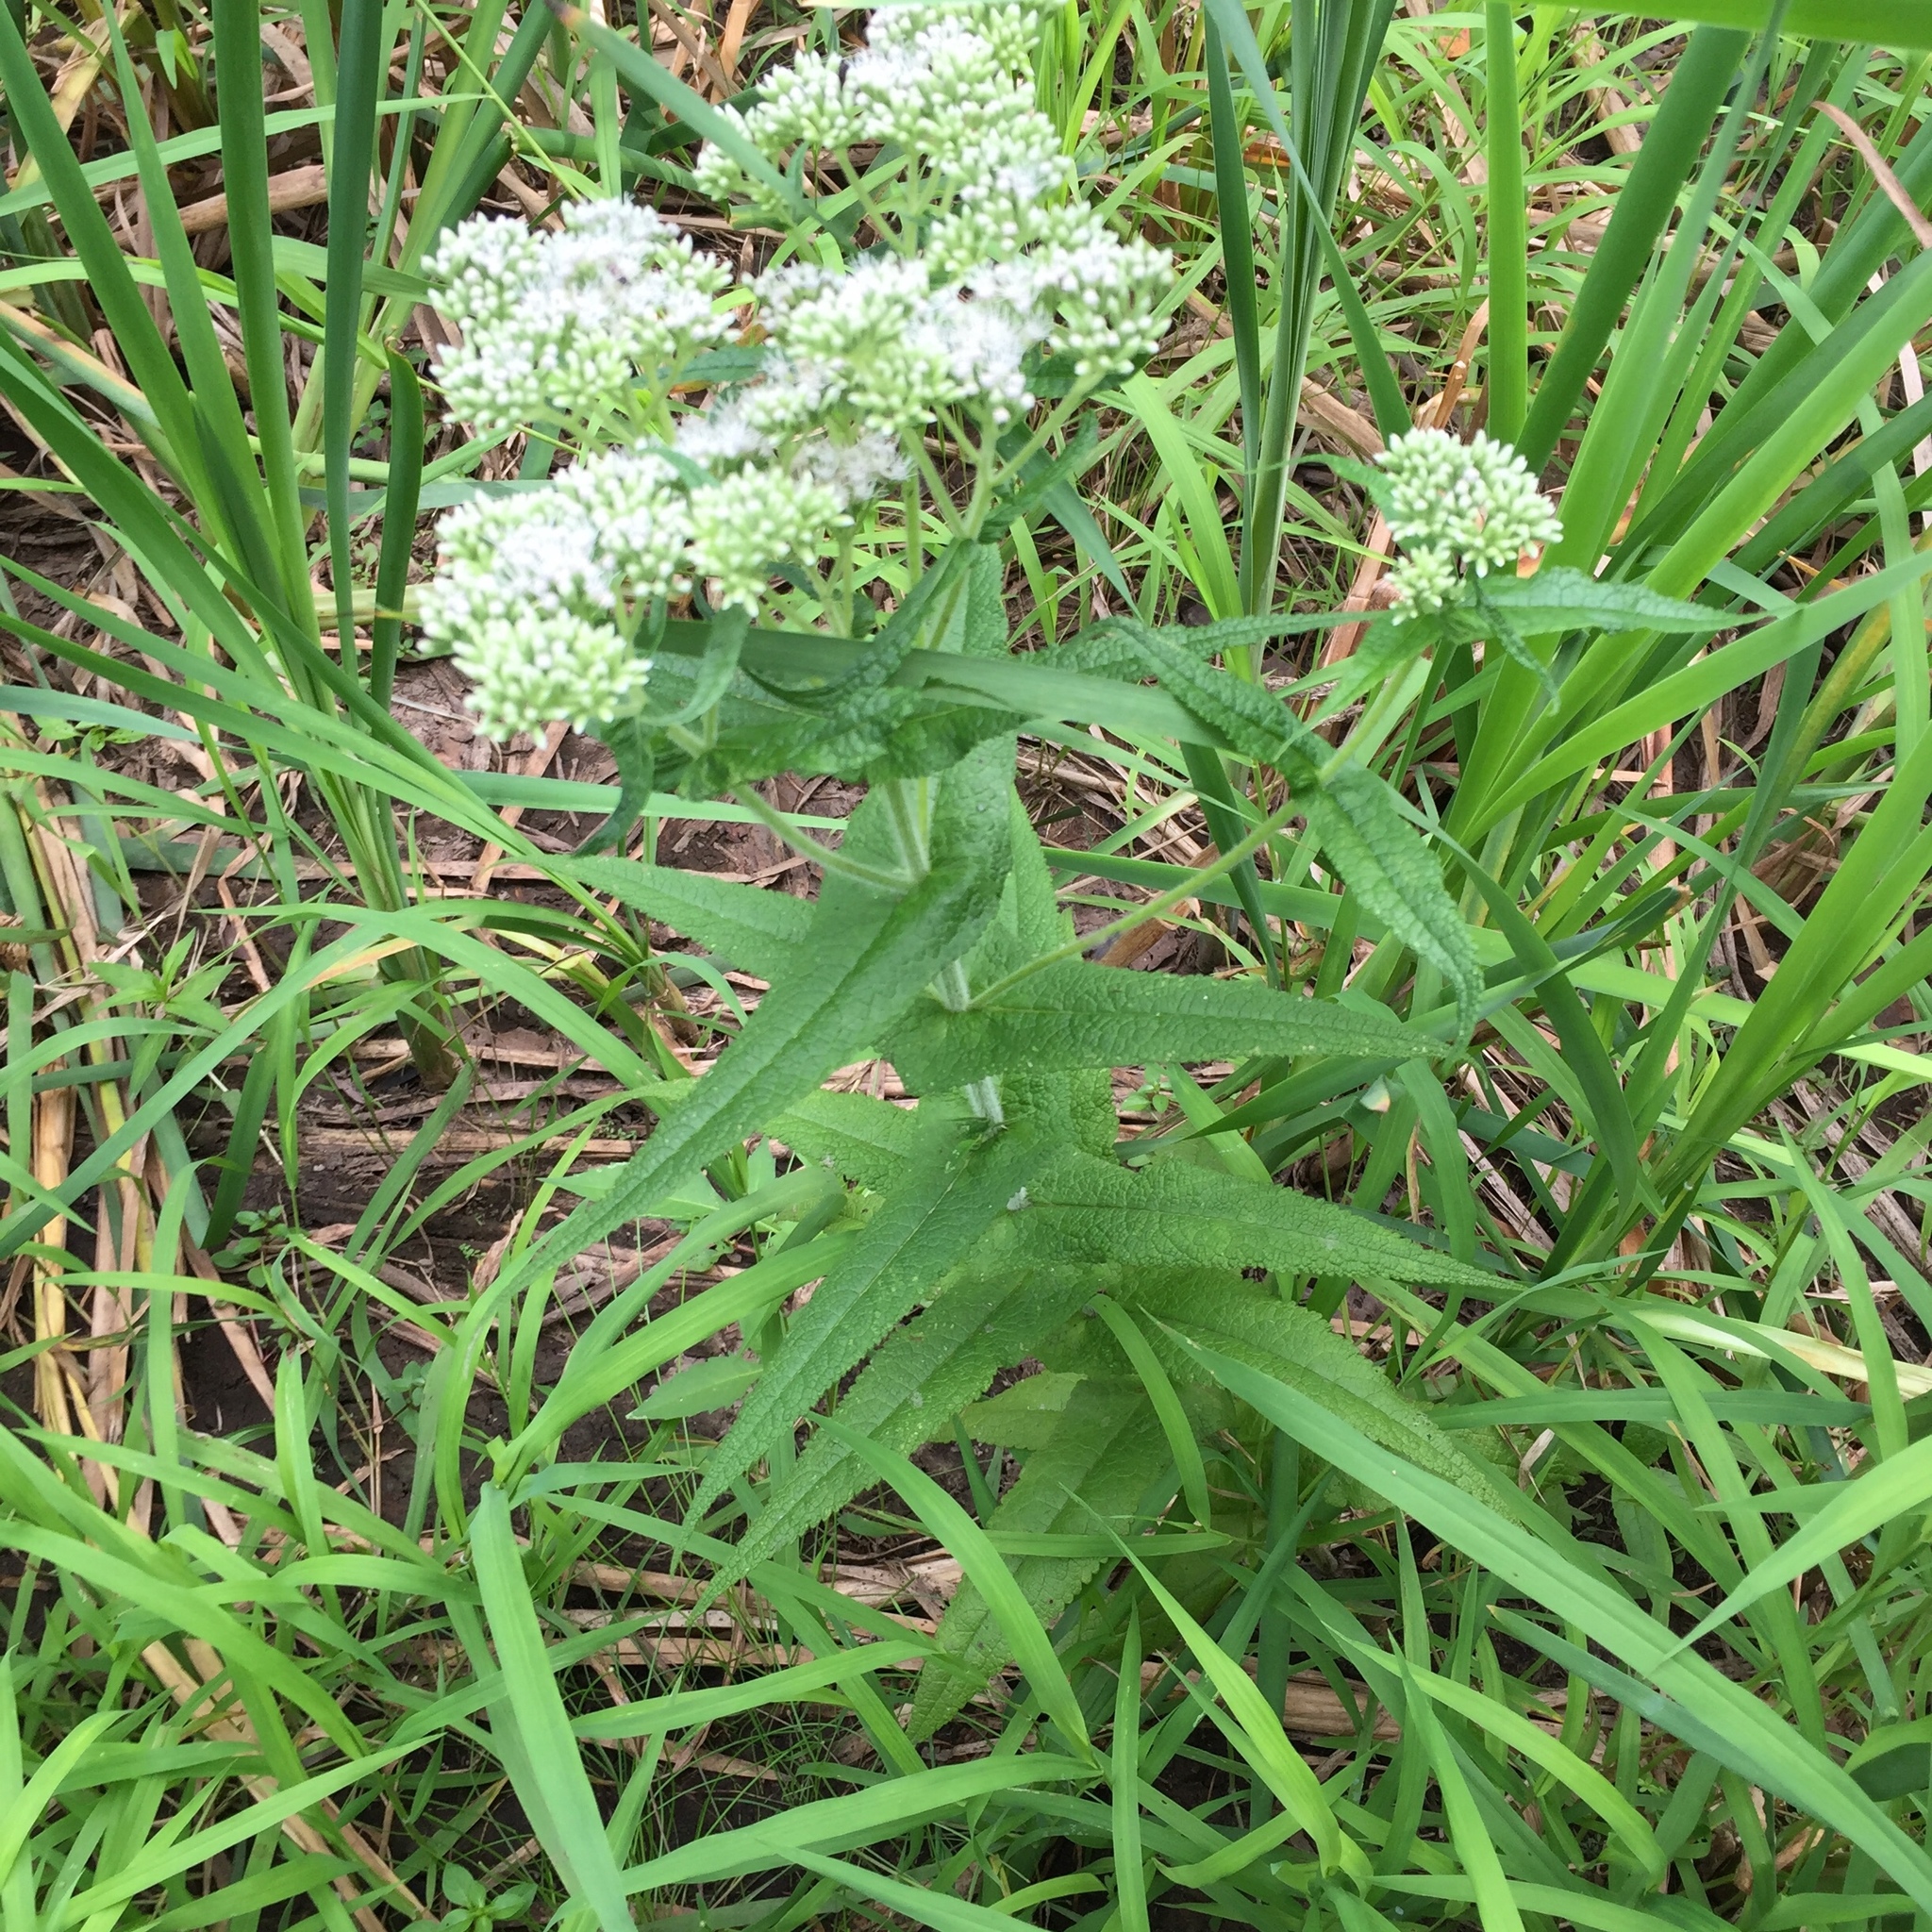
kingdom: Plantae
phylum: Tracheophyta
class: Magnoliopsida
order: Asterales
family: Asteraceae
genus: Eupatorium
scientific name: Eupatorium perfoliatum
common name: Boneset
